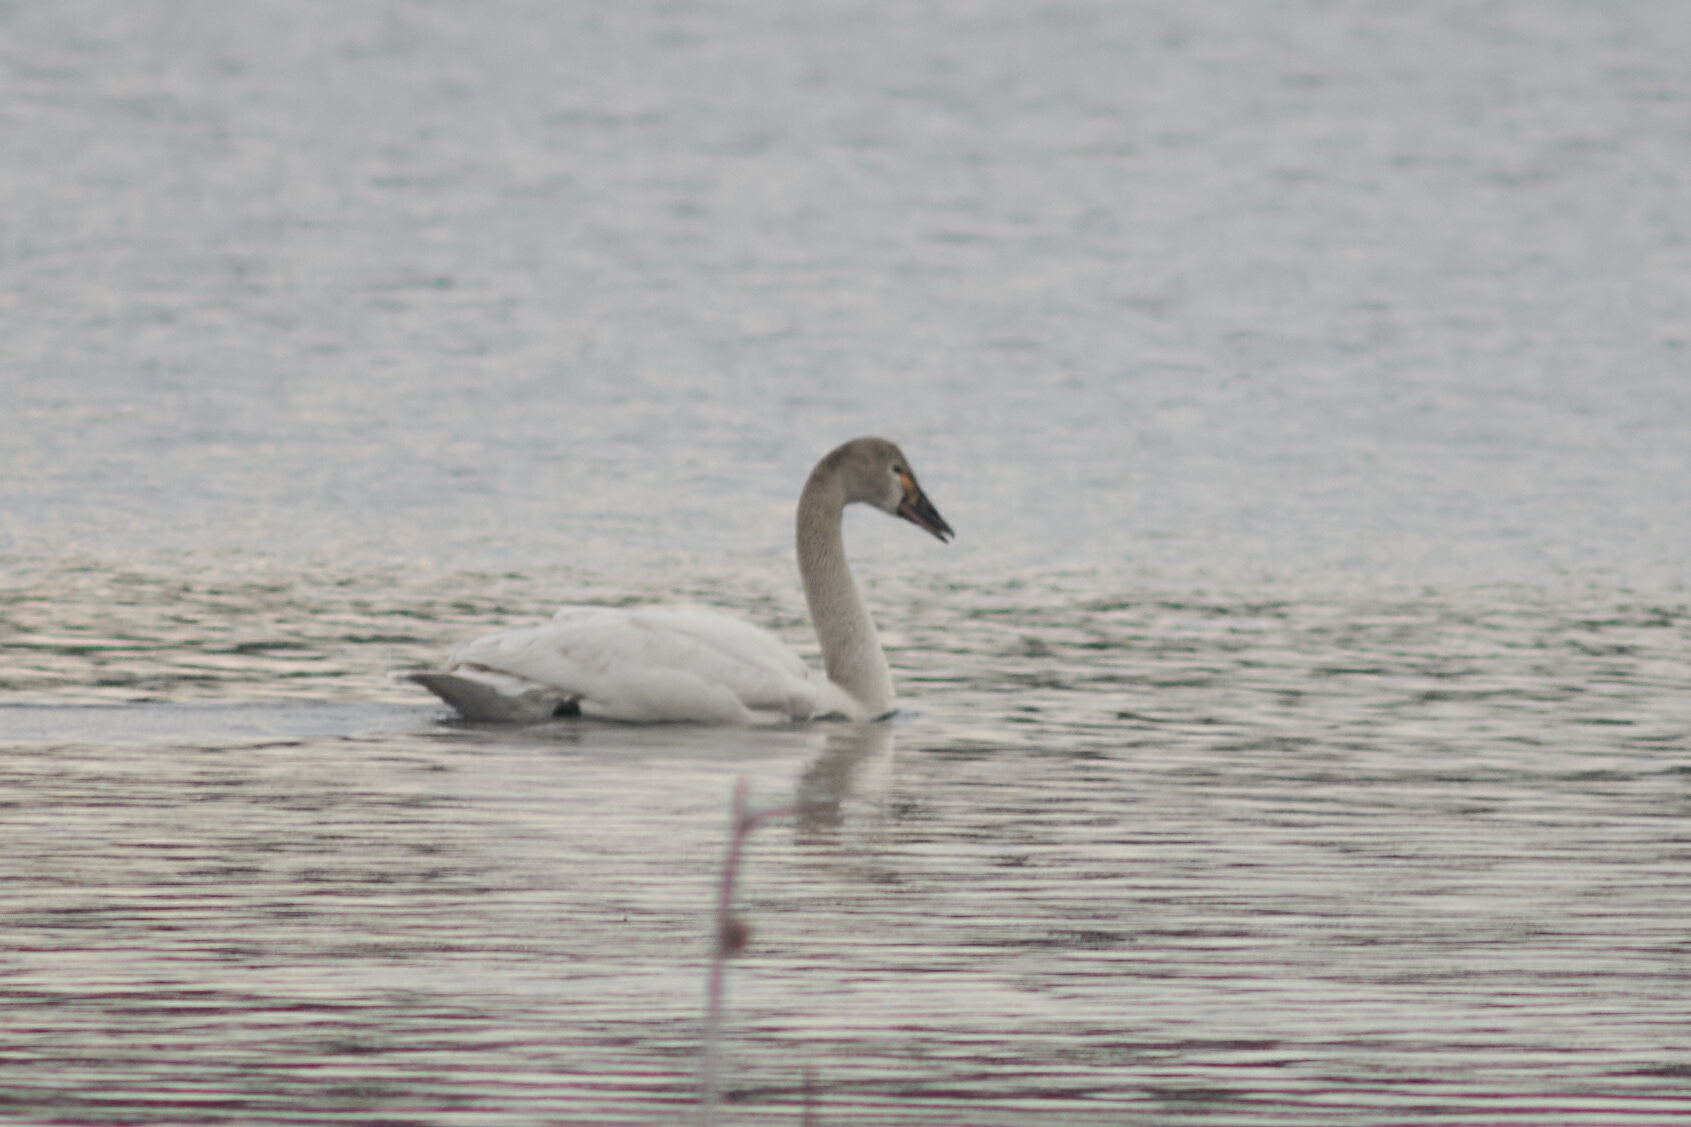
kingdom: Animalia
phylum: Chordata
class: Aves
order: Anseriformes
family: Anatidae
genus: Cygnus
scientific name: Cygnus columbianus
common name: Tundra swan
